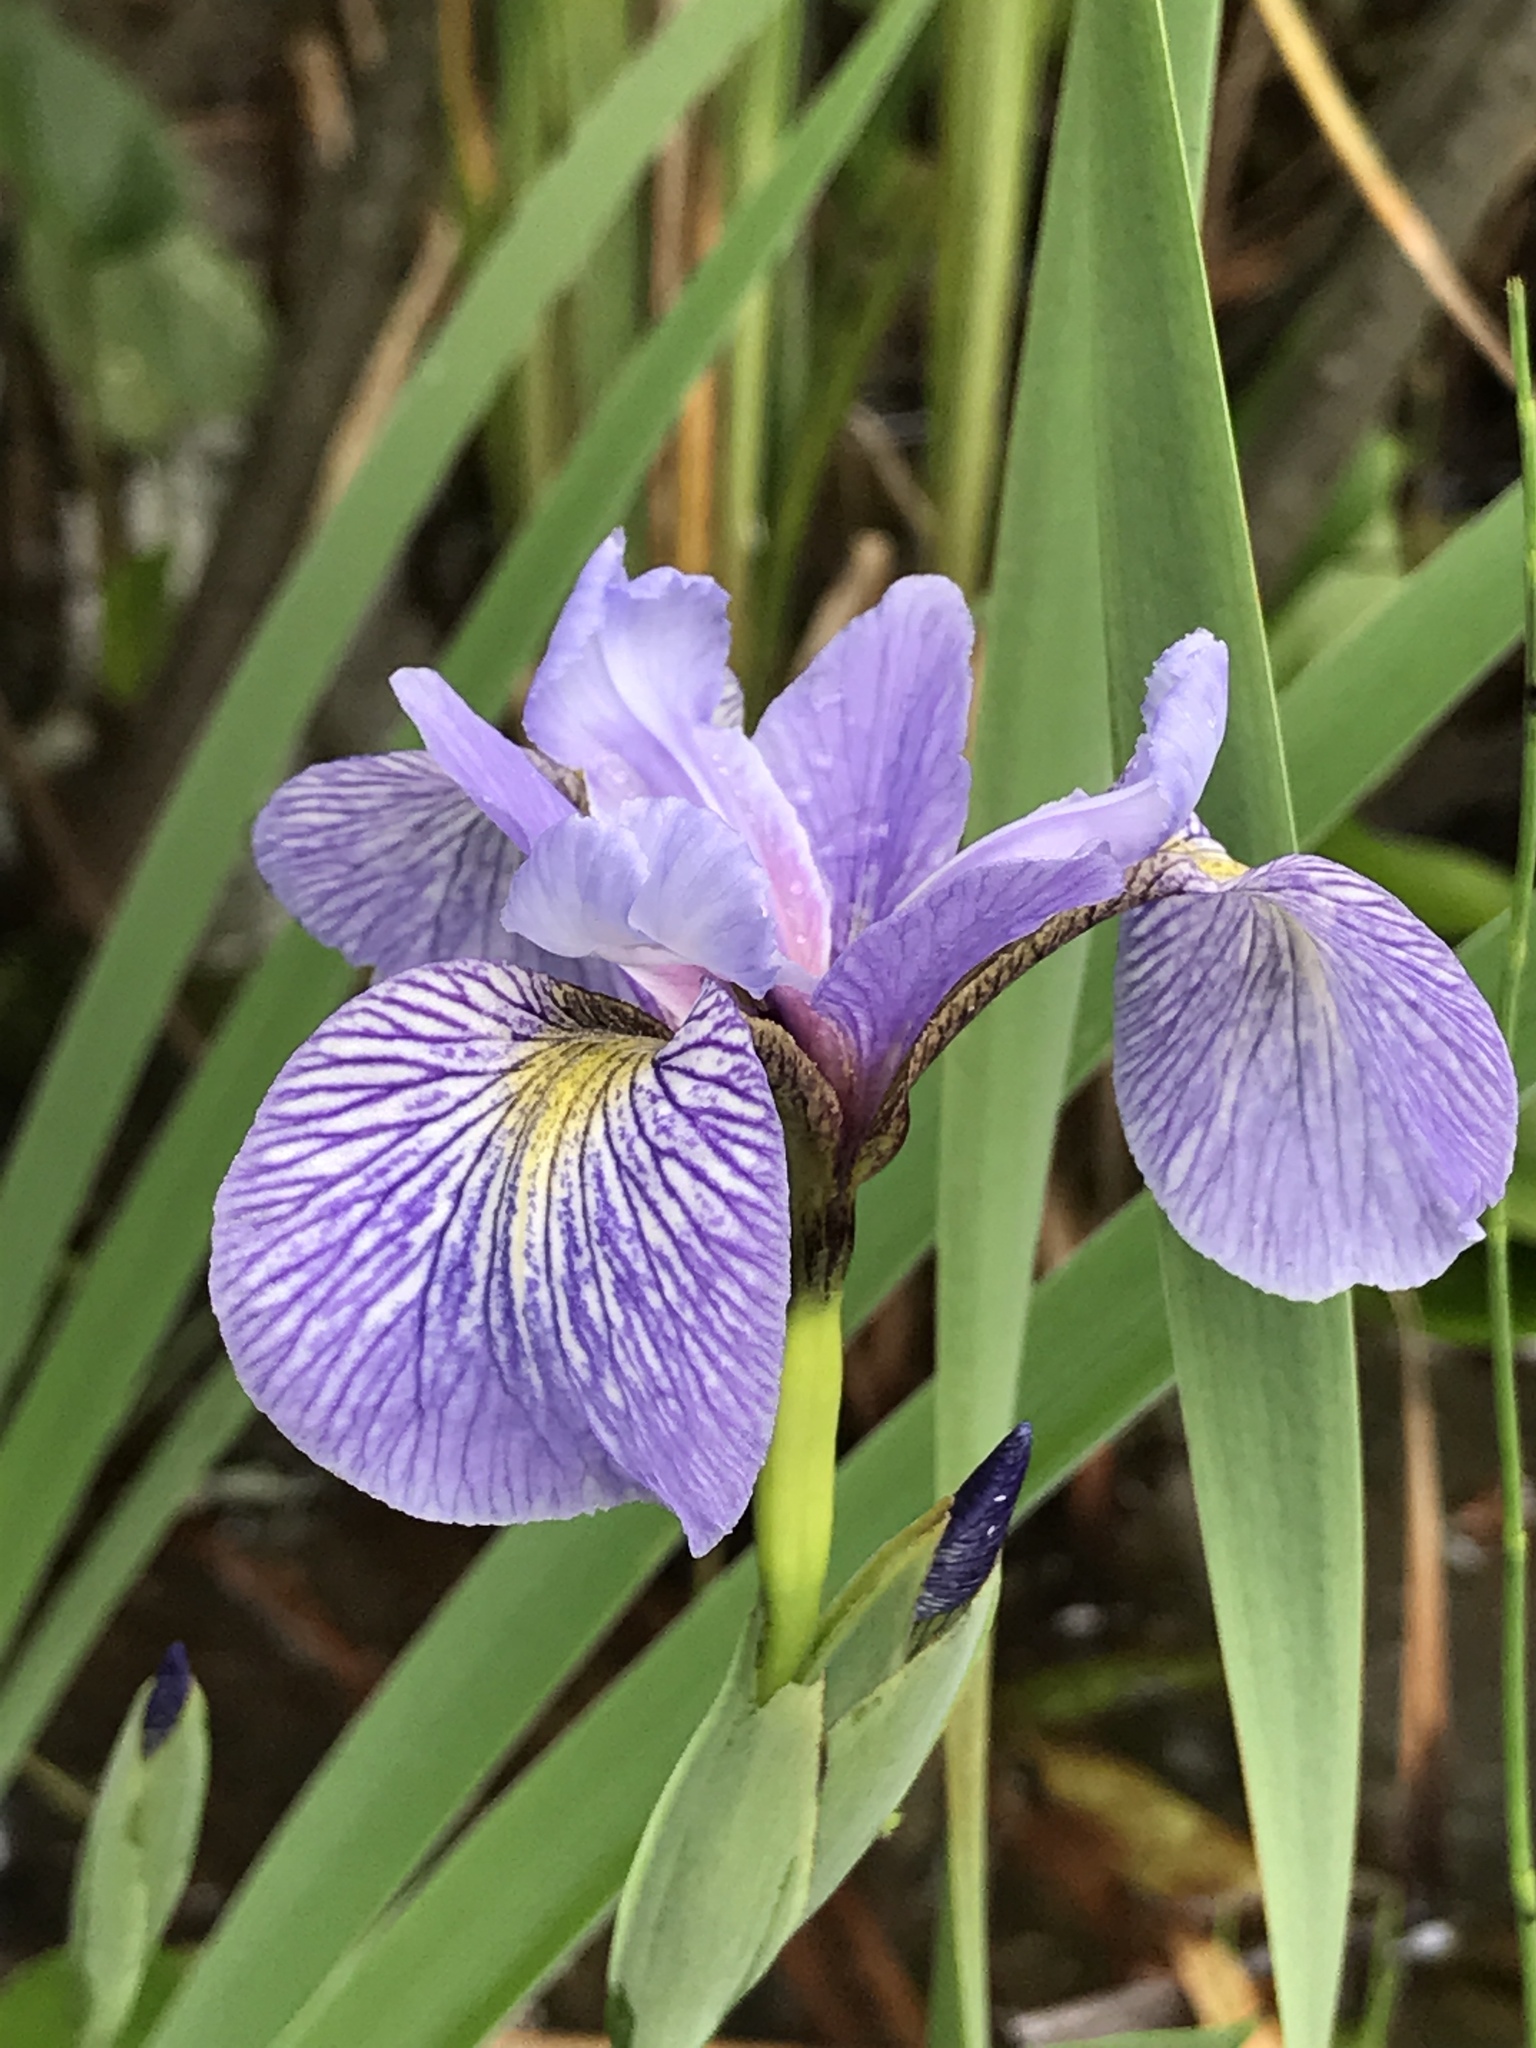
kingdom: Plantae
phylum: Tracheophyta
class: Liliopsida
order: Asparagales
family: Iridaceae
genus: Iris
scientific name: Iris versicolor
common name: Purple iris
